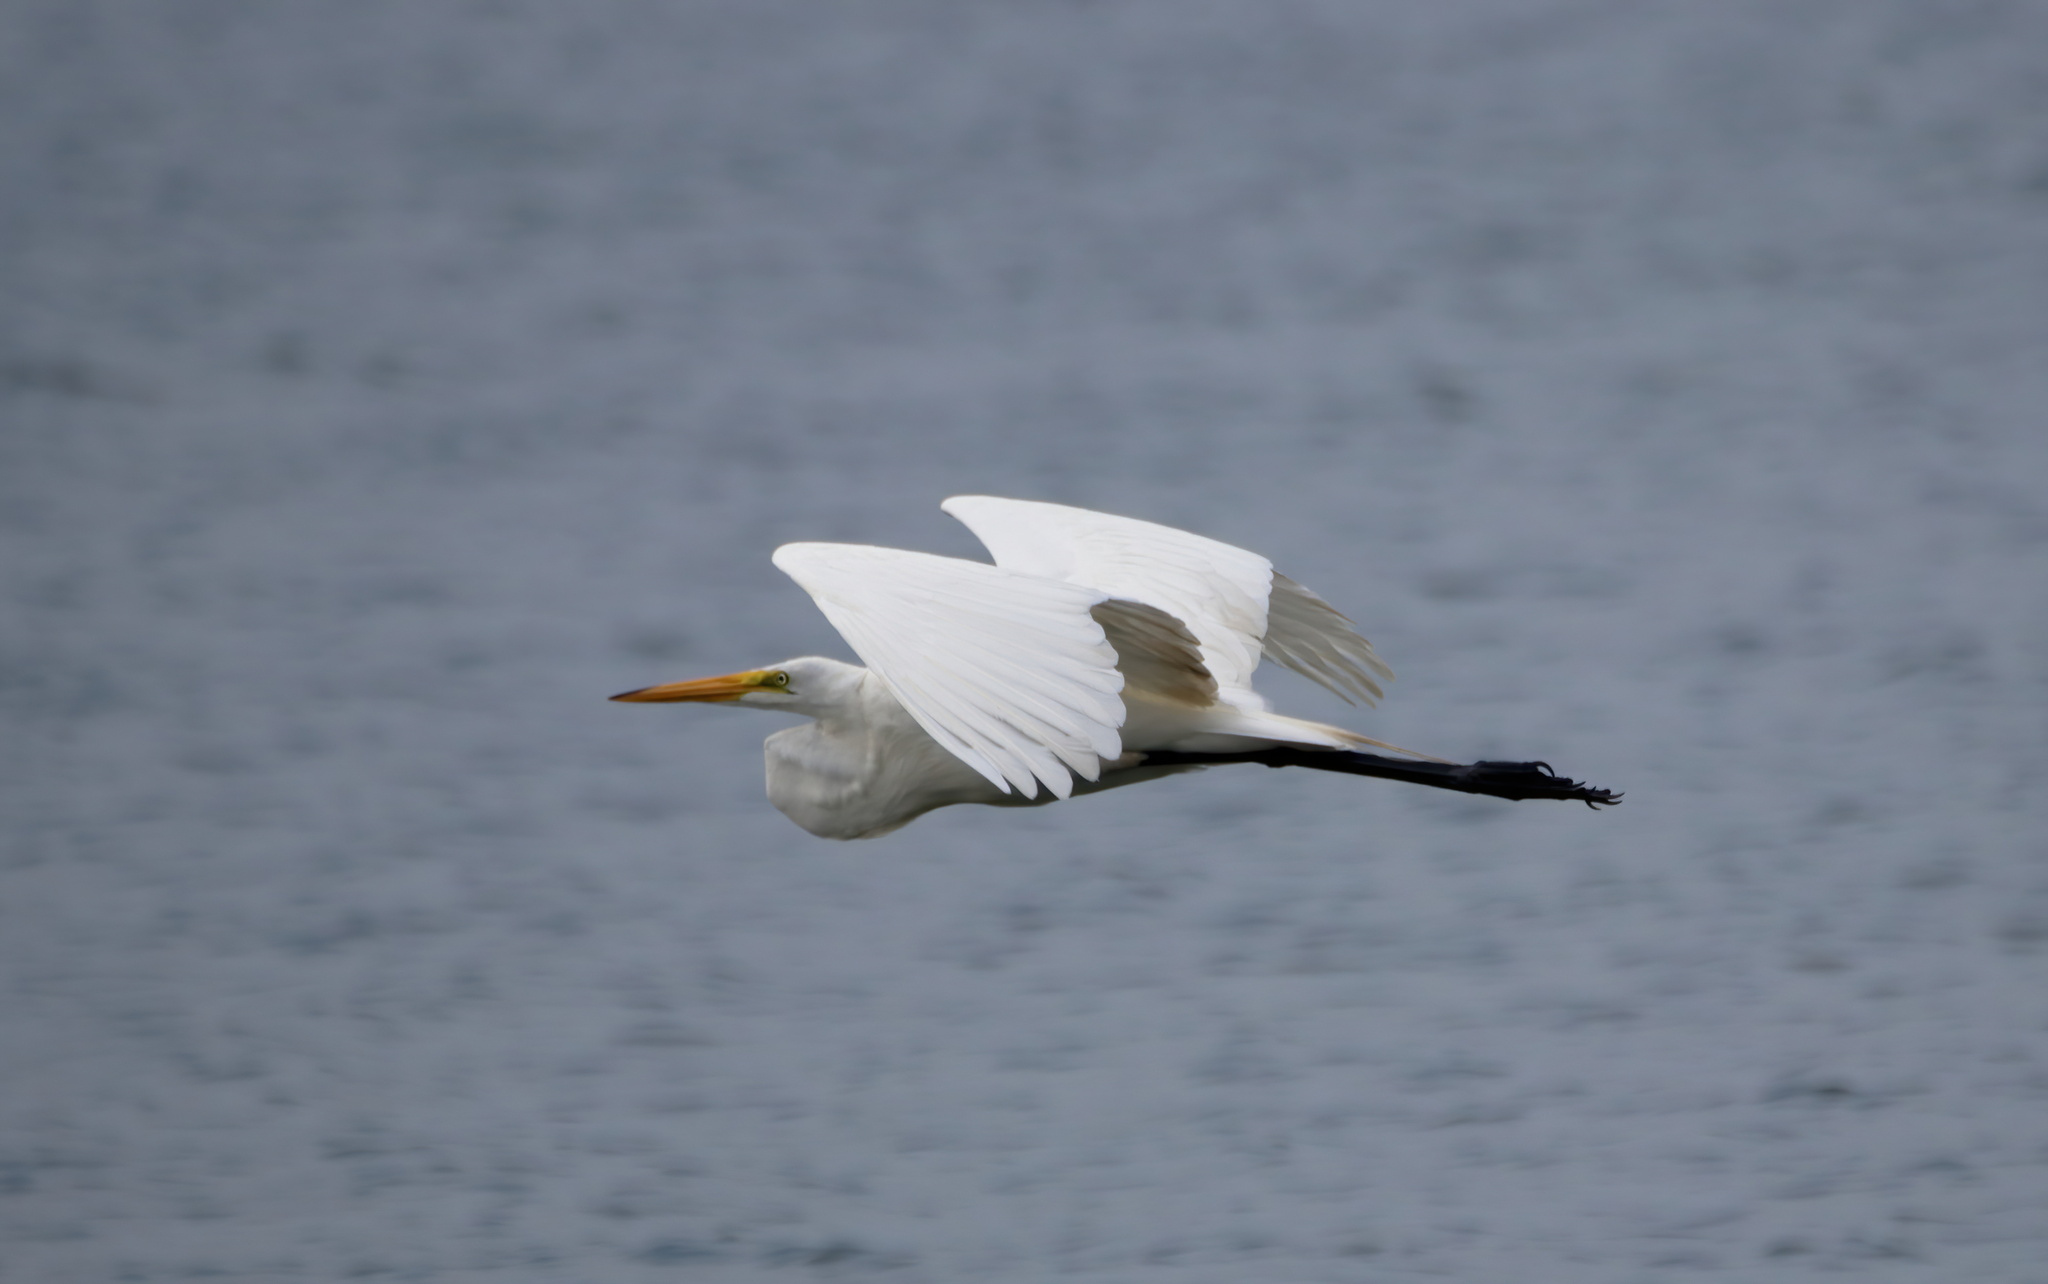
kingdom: Animalia
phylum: Chordata
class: Aves
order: Pelecaniformes
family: Ardeidae
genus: Ardea
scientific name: Ardea alba
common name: Great egret
